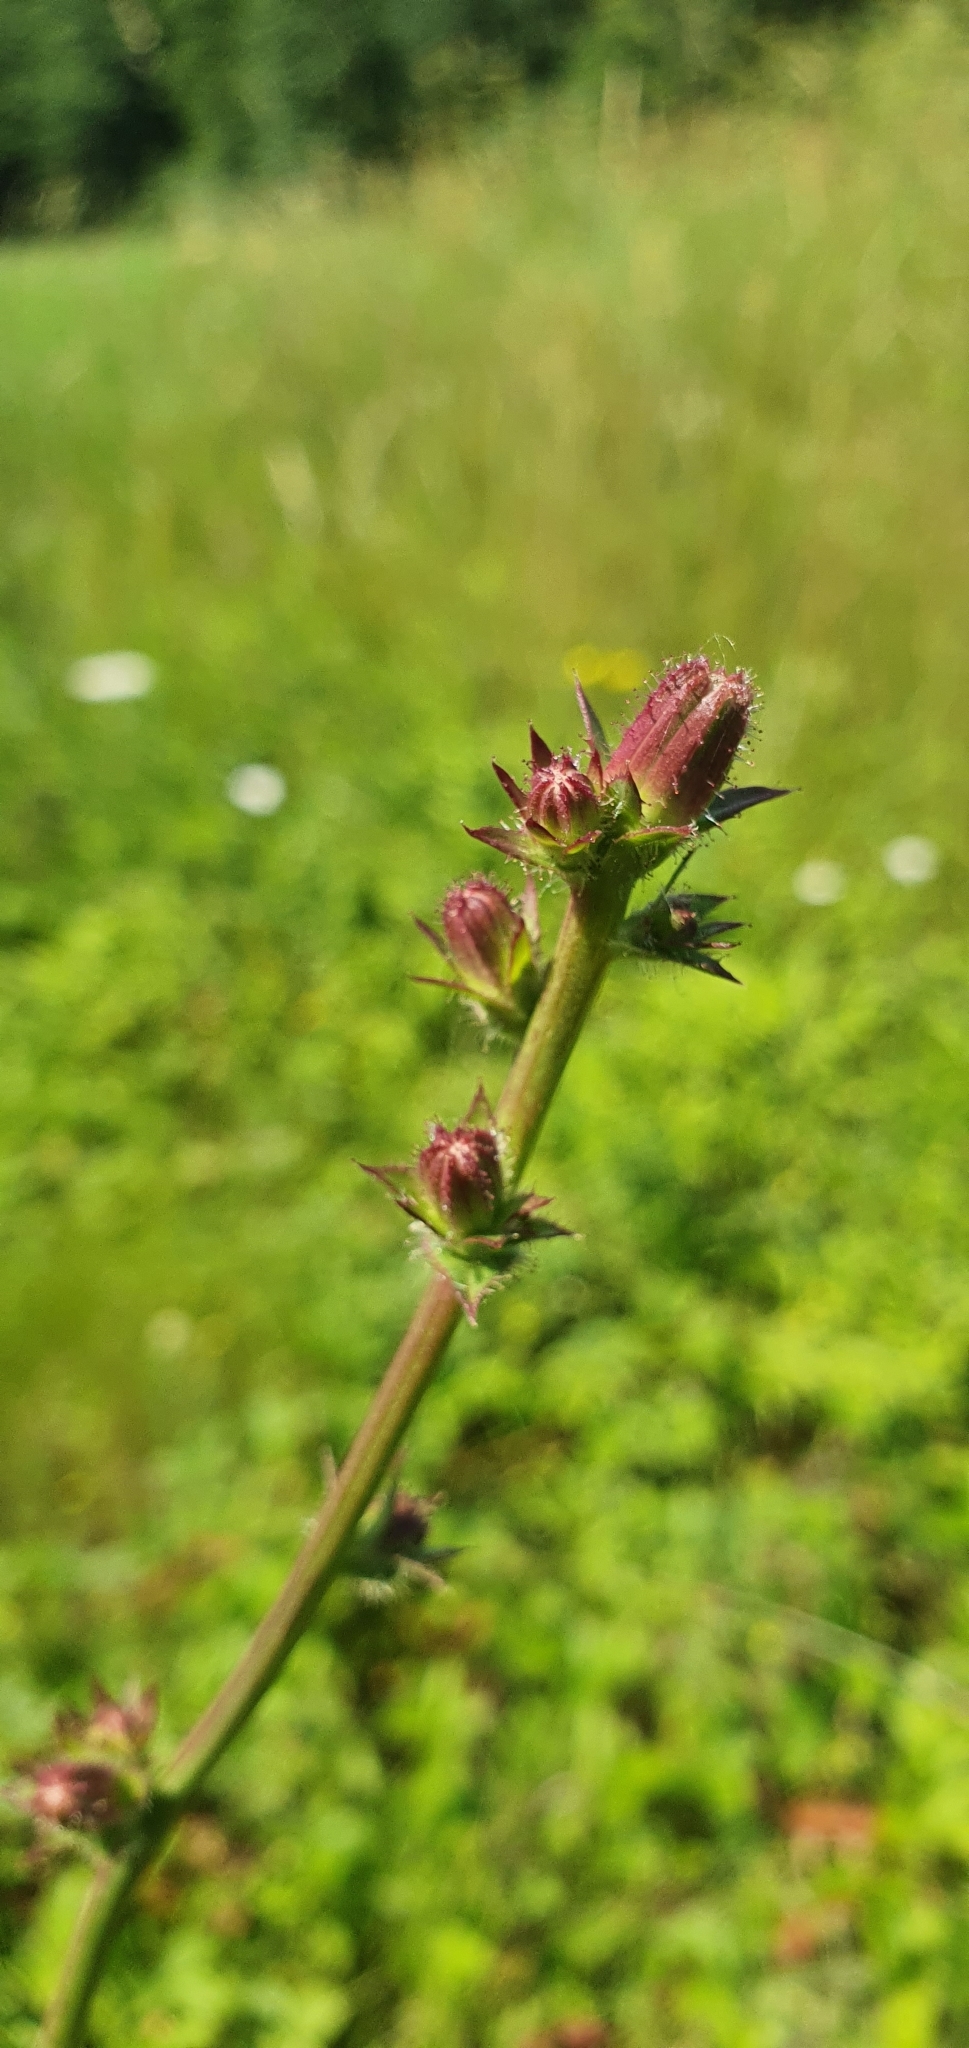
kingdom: Plantae
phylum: Tracheophyta
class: Magnoliopsida
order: Asterales
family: Asteraceae
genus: Cichorium
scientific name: Cichorium intybus
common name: Chicory
